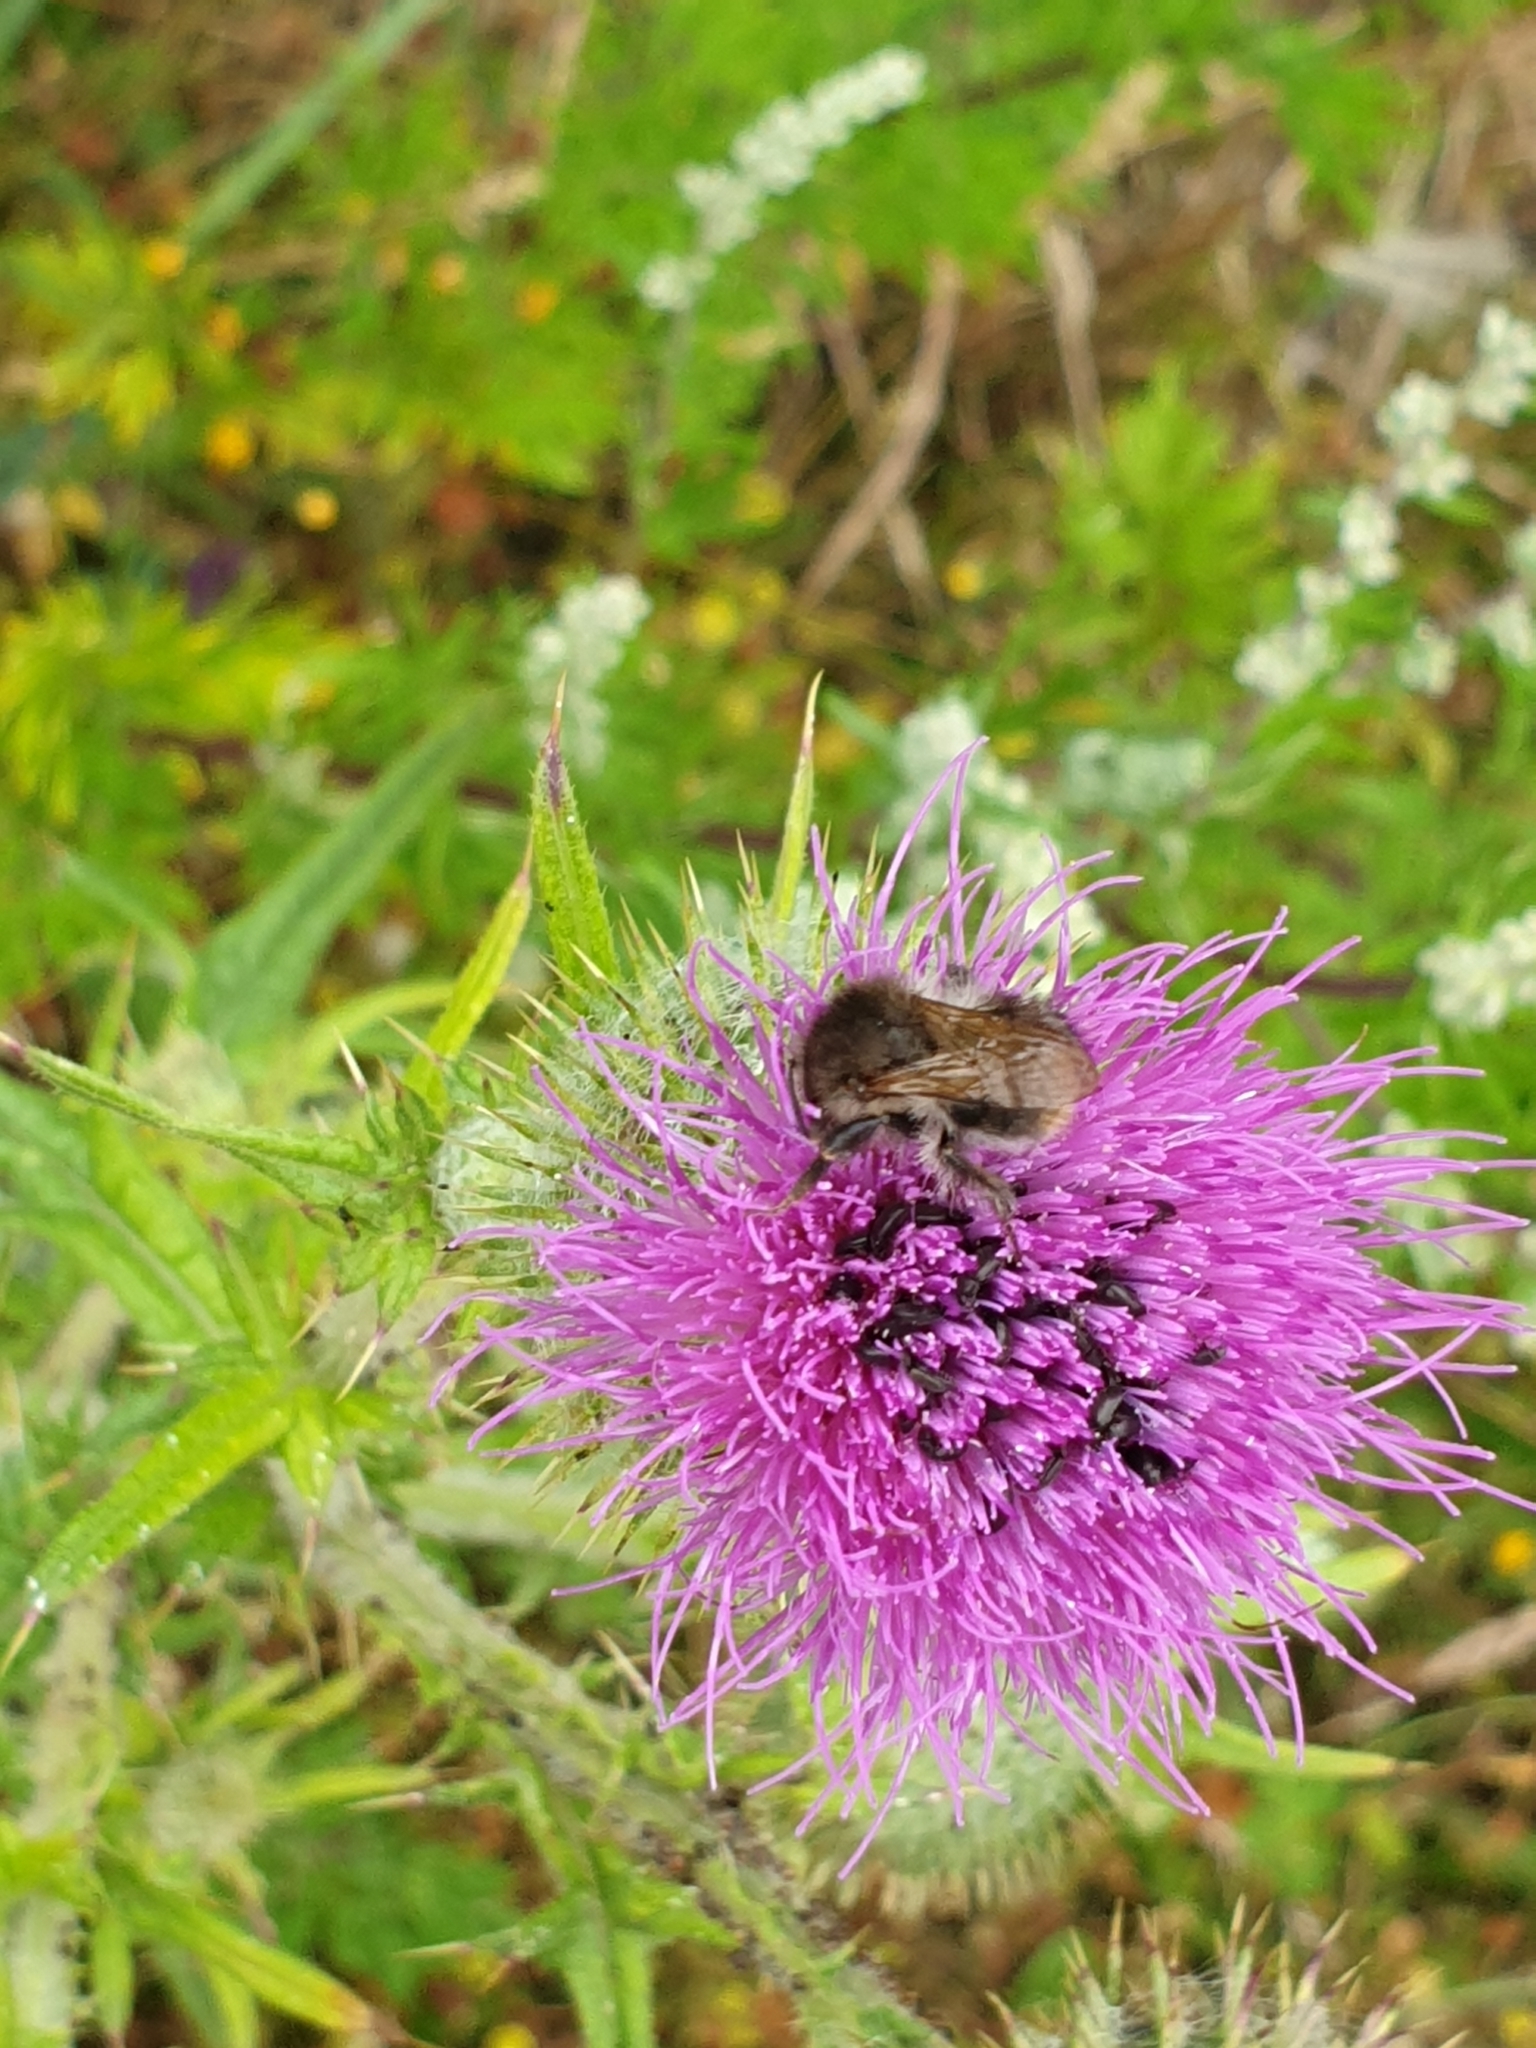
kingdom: Plantae
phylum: Tracheophyta
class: Magnoliopsida
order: Asterales
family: Asteraceae
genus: Cirsium
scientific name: Cirsium vulgare
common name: Bull thistle
